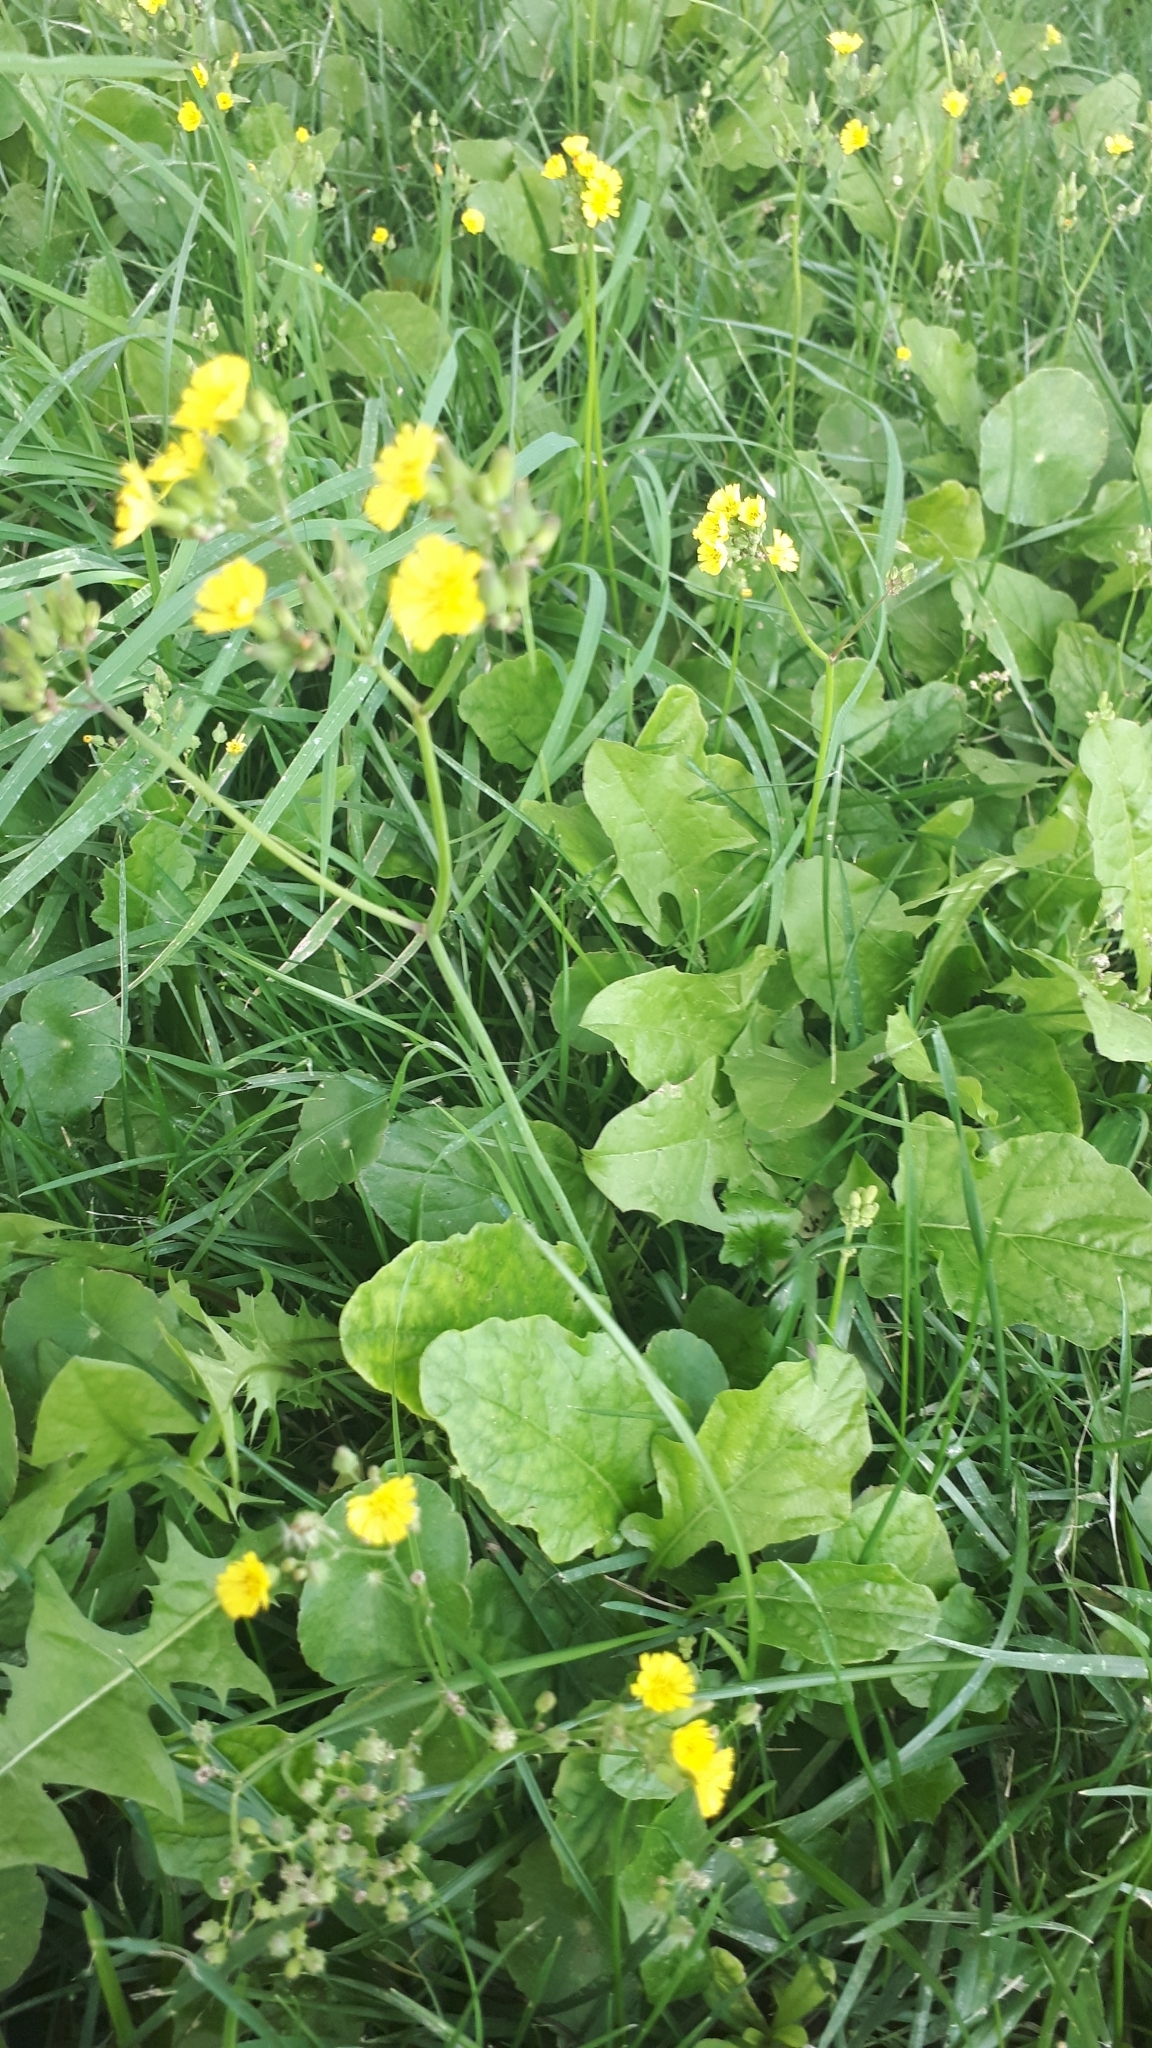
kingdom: Plantae
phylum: Tracheophyta
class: Magnoliopsida
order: Asterales
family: Asteraceae
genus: Youngia
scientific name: Youngia japonica
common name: Oriental false hawksbeard
